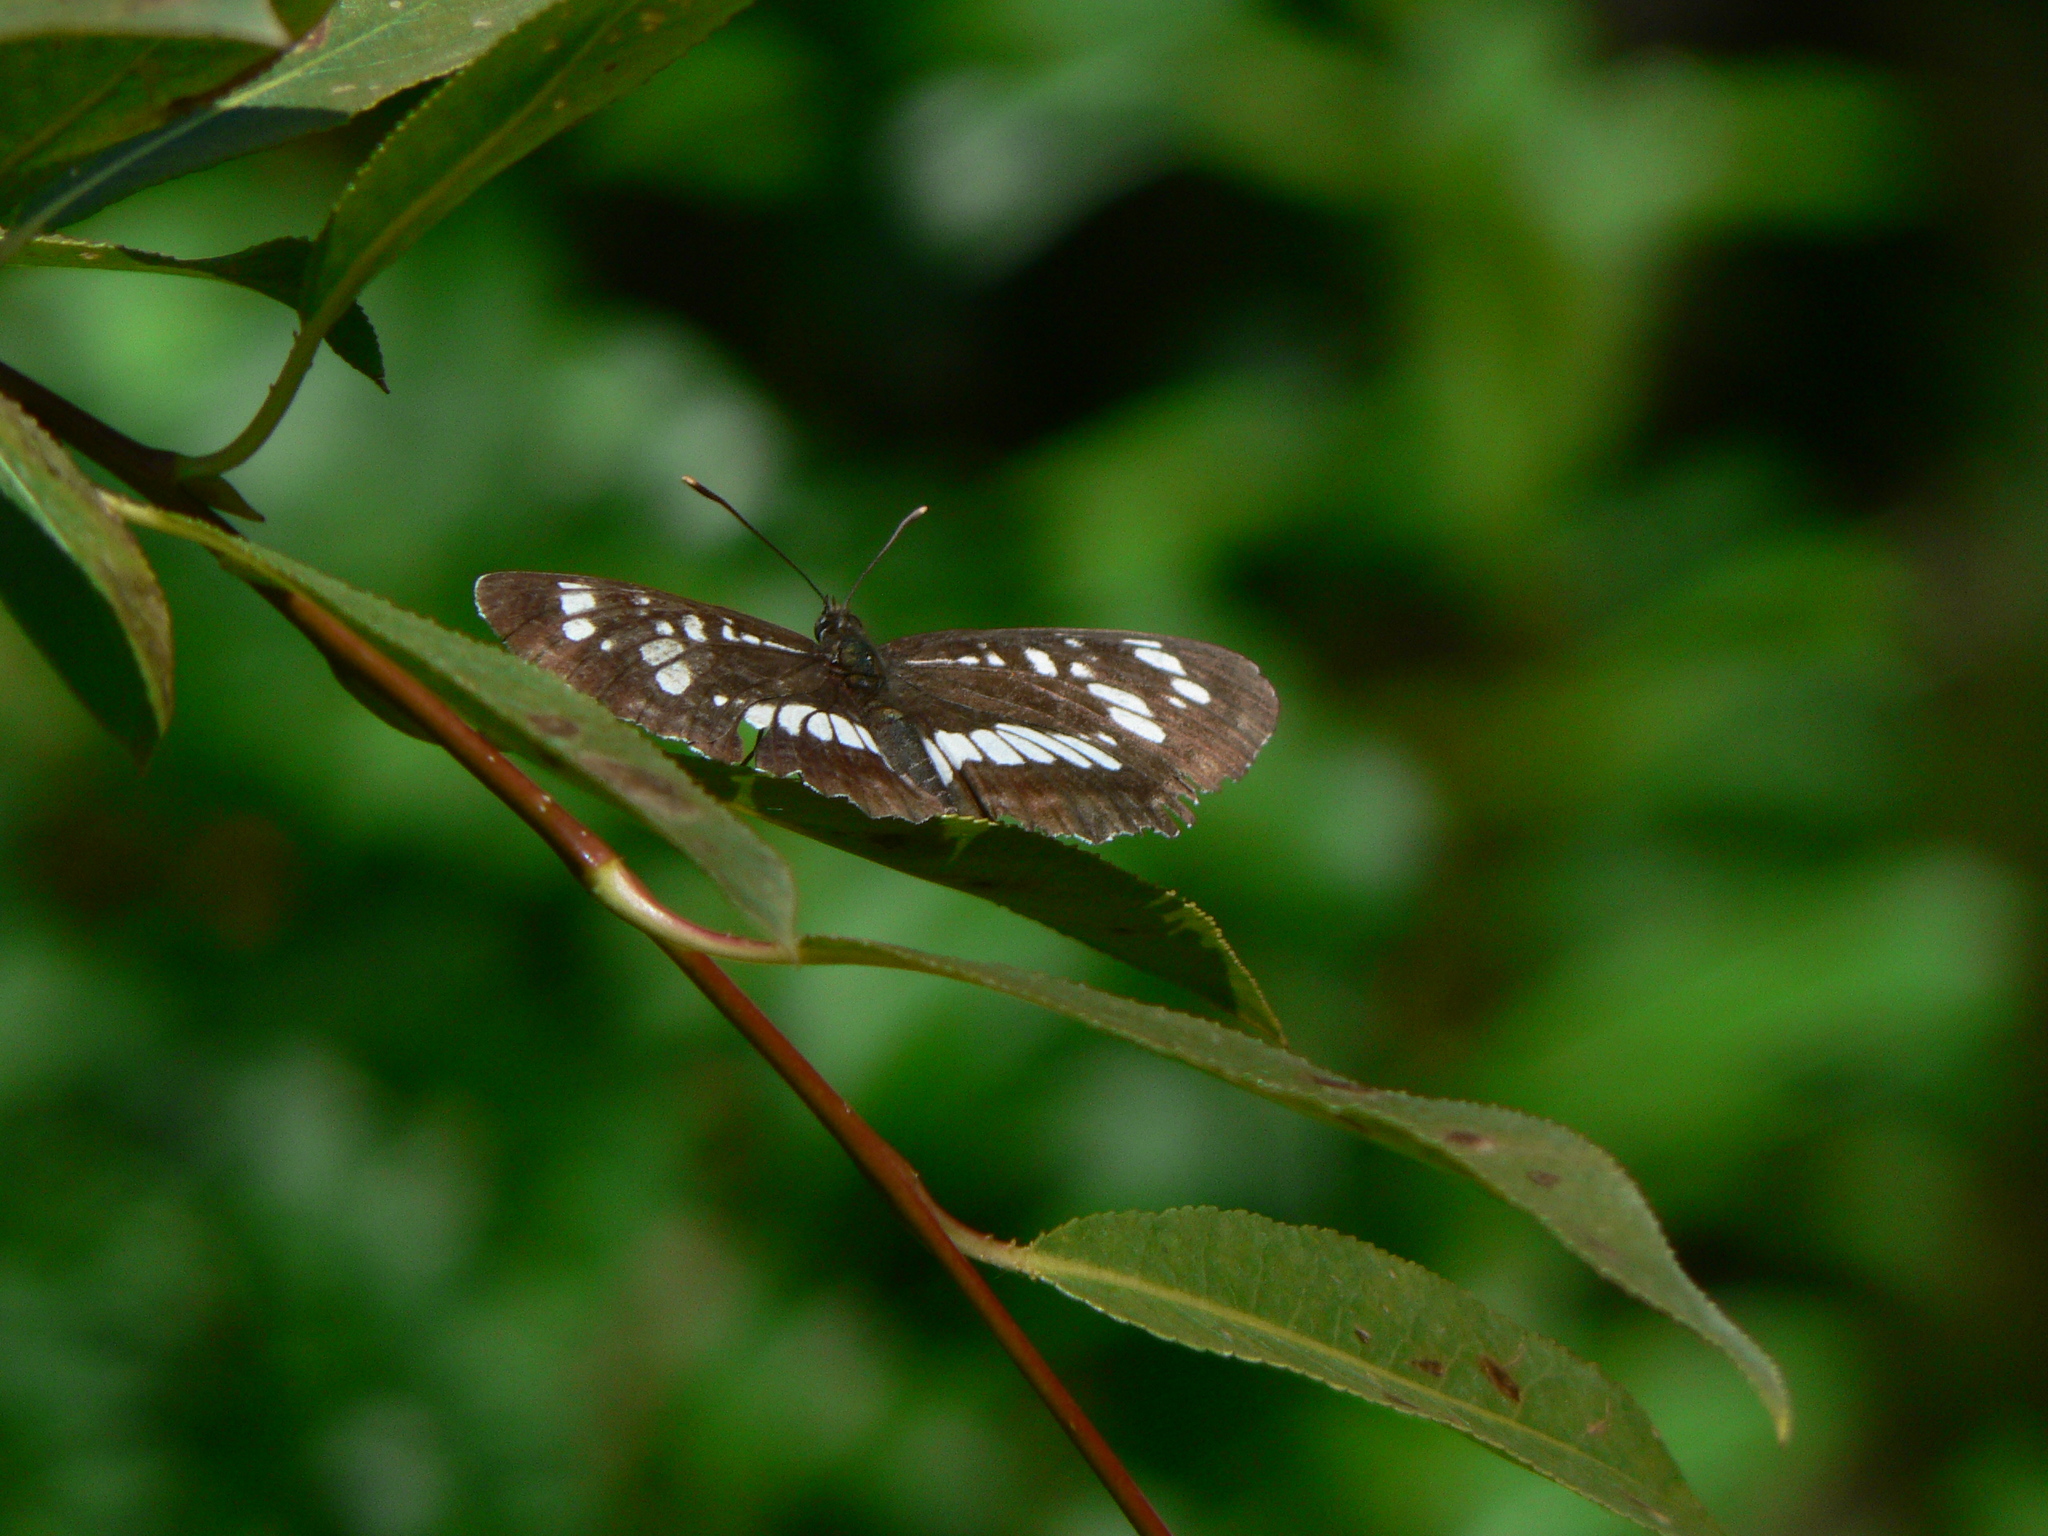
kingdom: Animalia
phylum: Arthropoda
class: Insecta
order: Lepidoptera
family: Nymphalidae
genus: Neptis
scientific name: Neptis rivularis
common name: Hungarian glider
